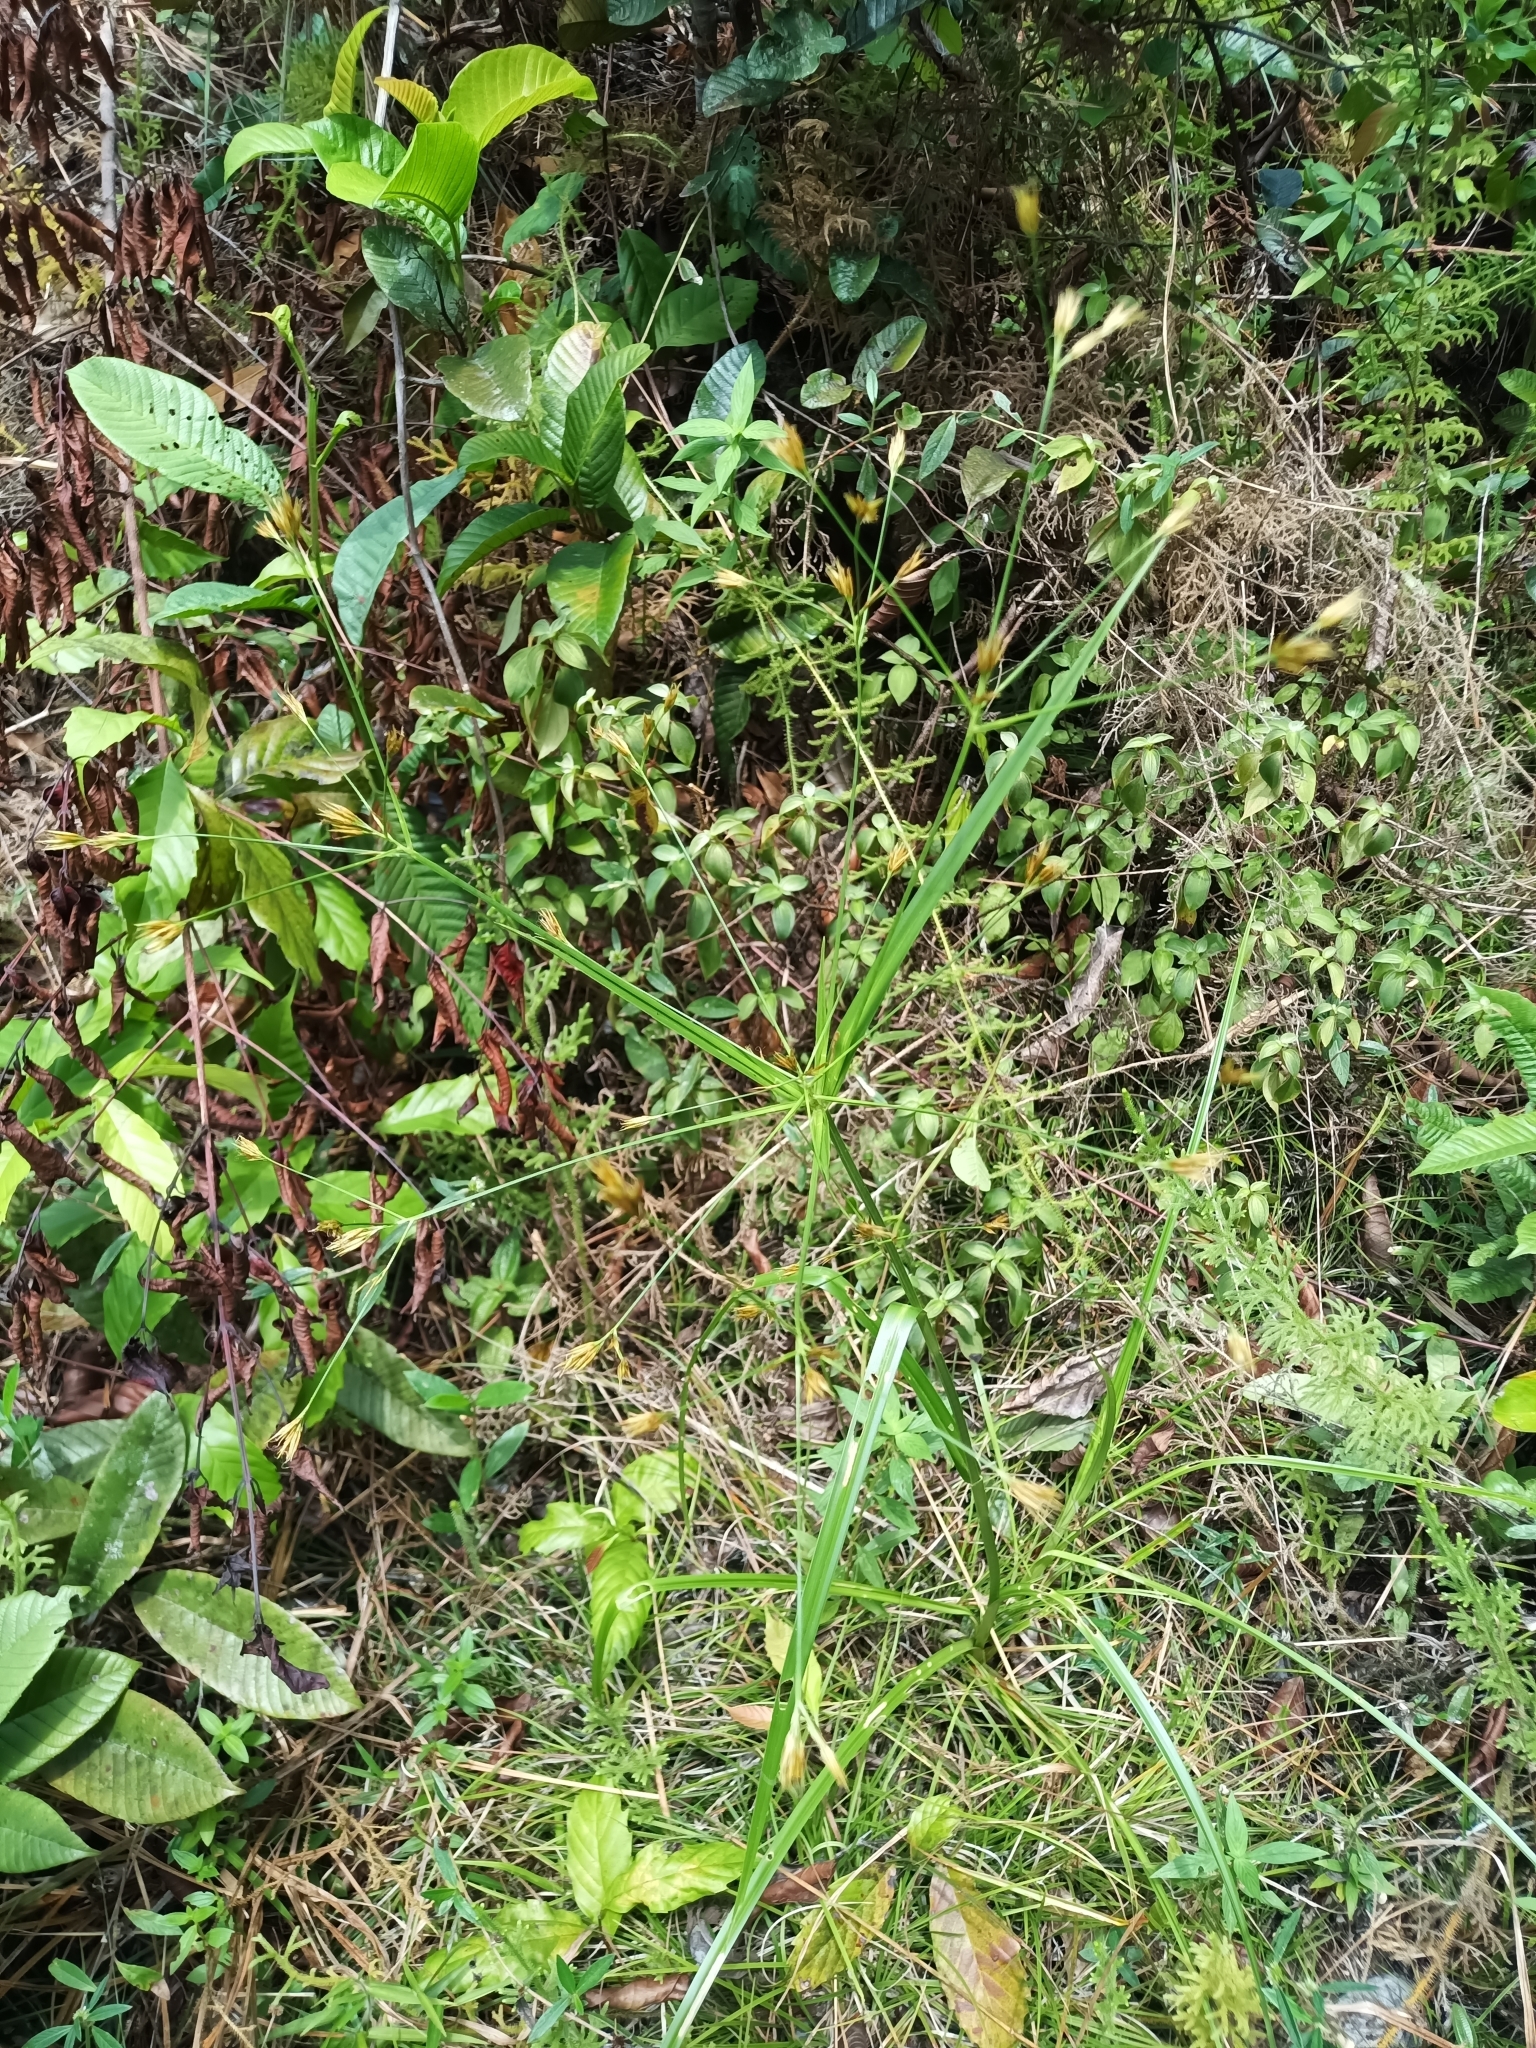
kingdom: Plantae
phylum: Tracheophyta
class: Liliopsida
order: Poales
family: Cyperaceae
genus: Rhynchospora
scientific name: Rhynchospora trispicata
